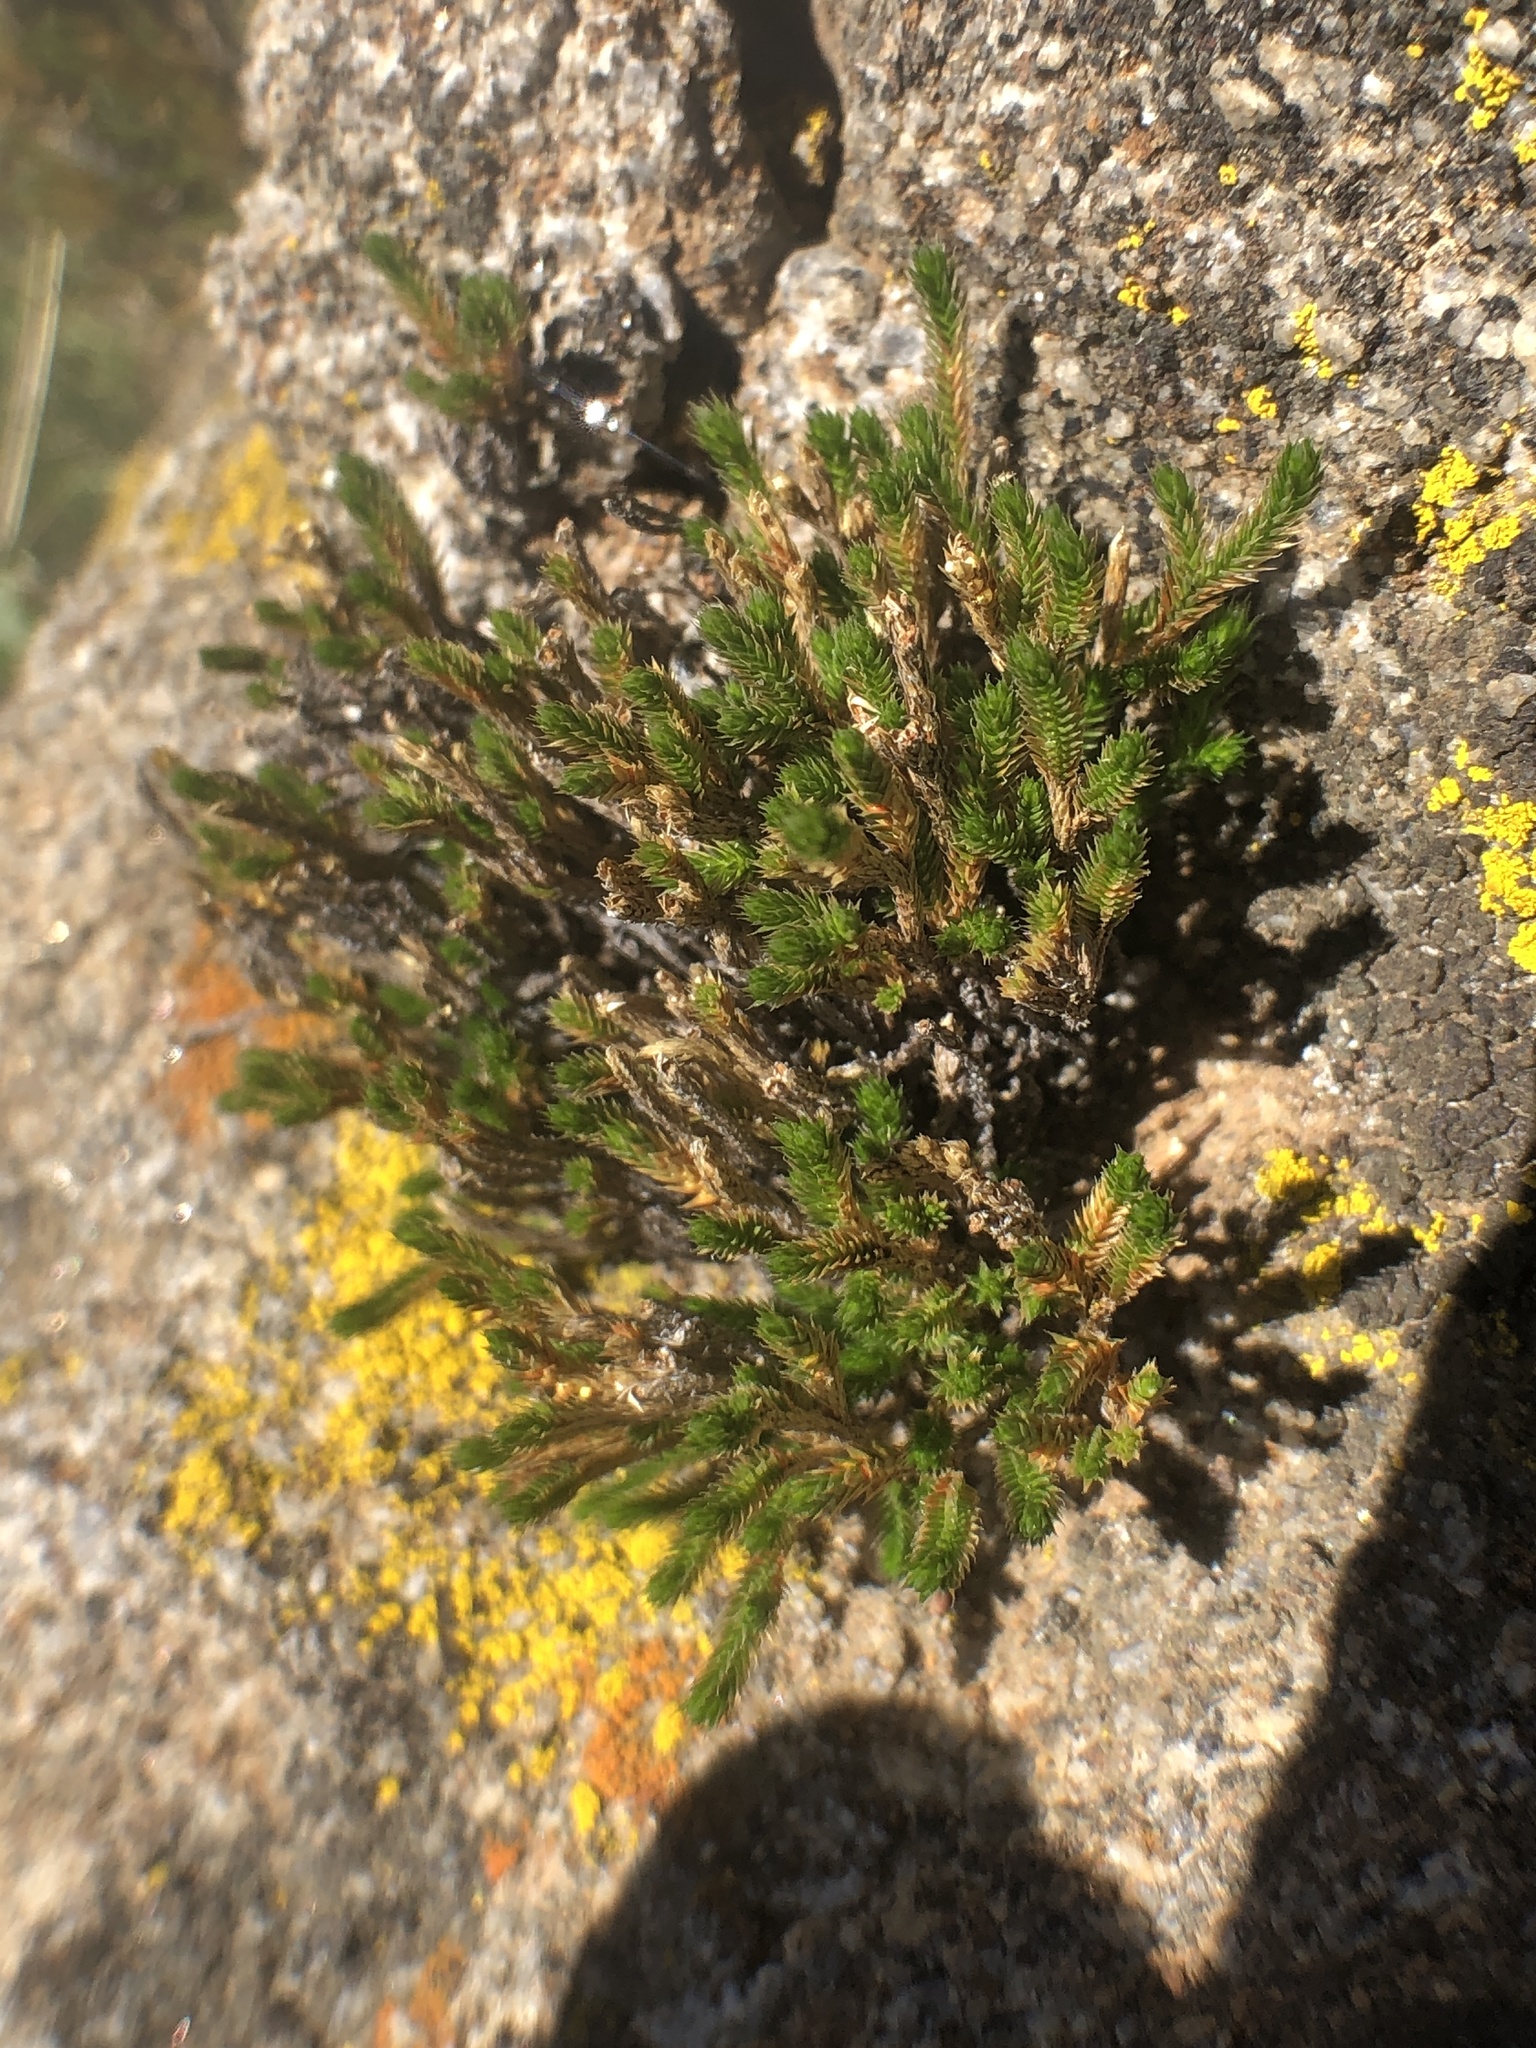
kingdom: Plantae
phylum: Tracheophyta
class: Lycopodiopsida
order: Selaginellales
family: Selaginellaceae
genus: Selaginella
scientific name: Selaginella bigelovii
